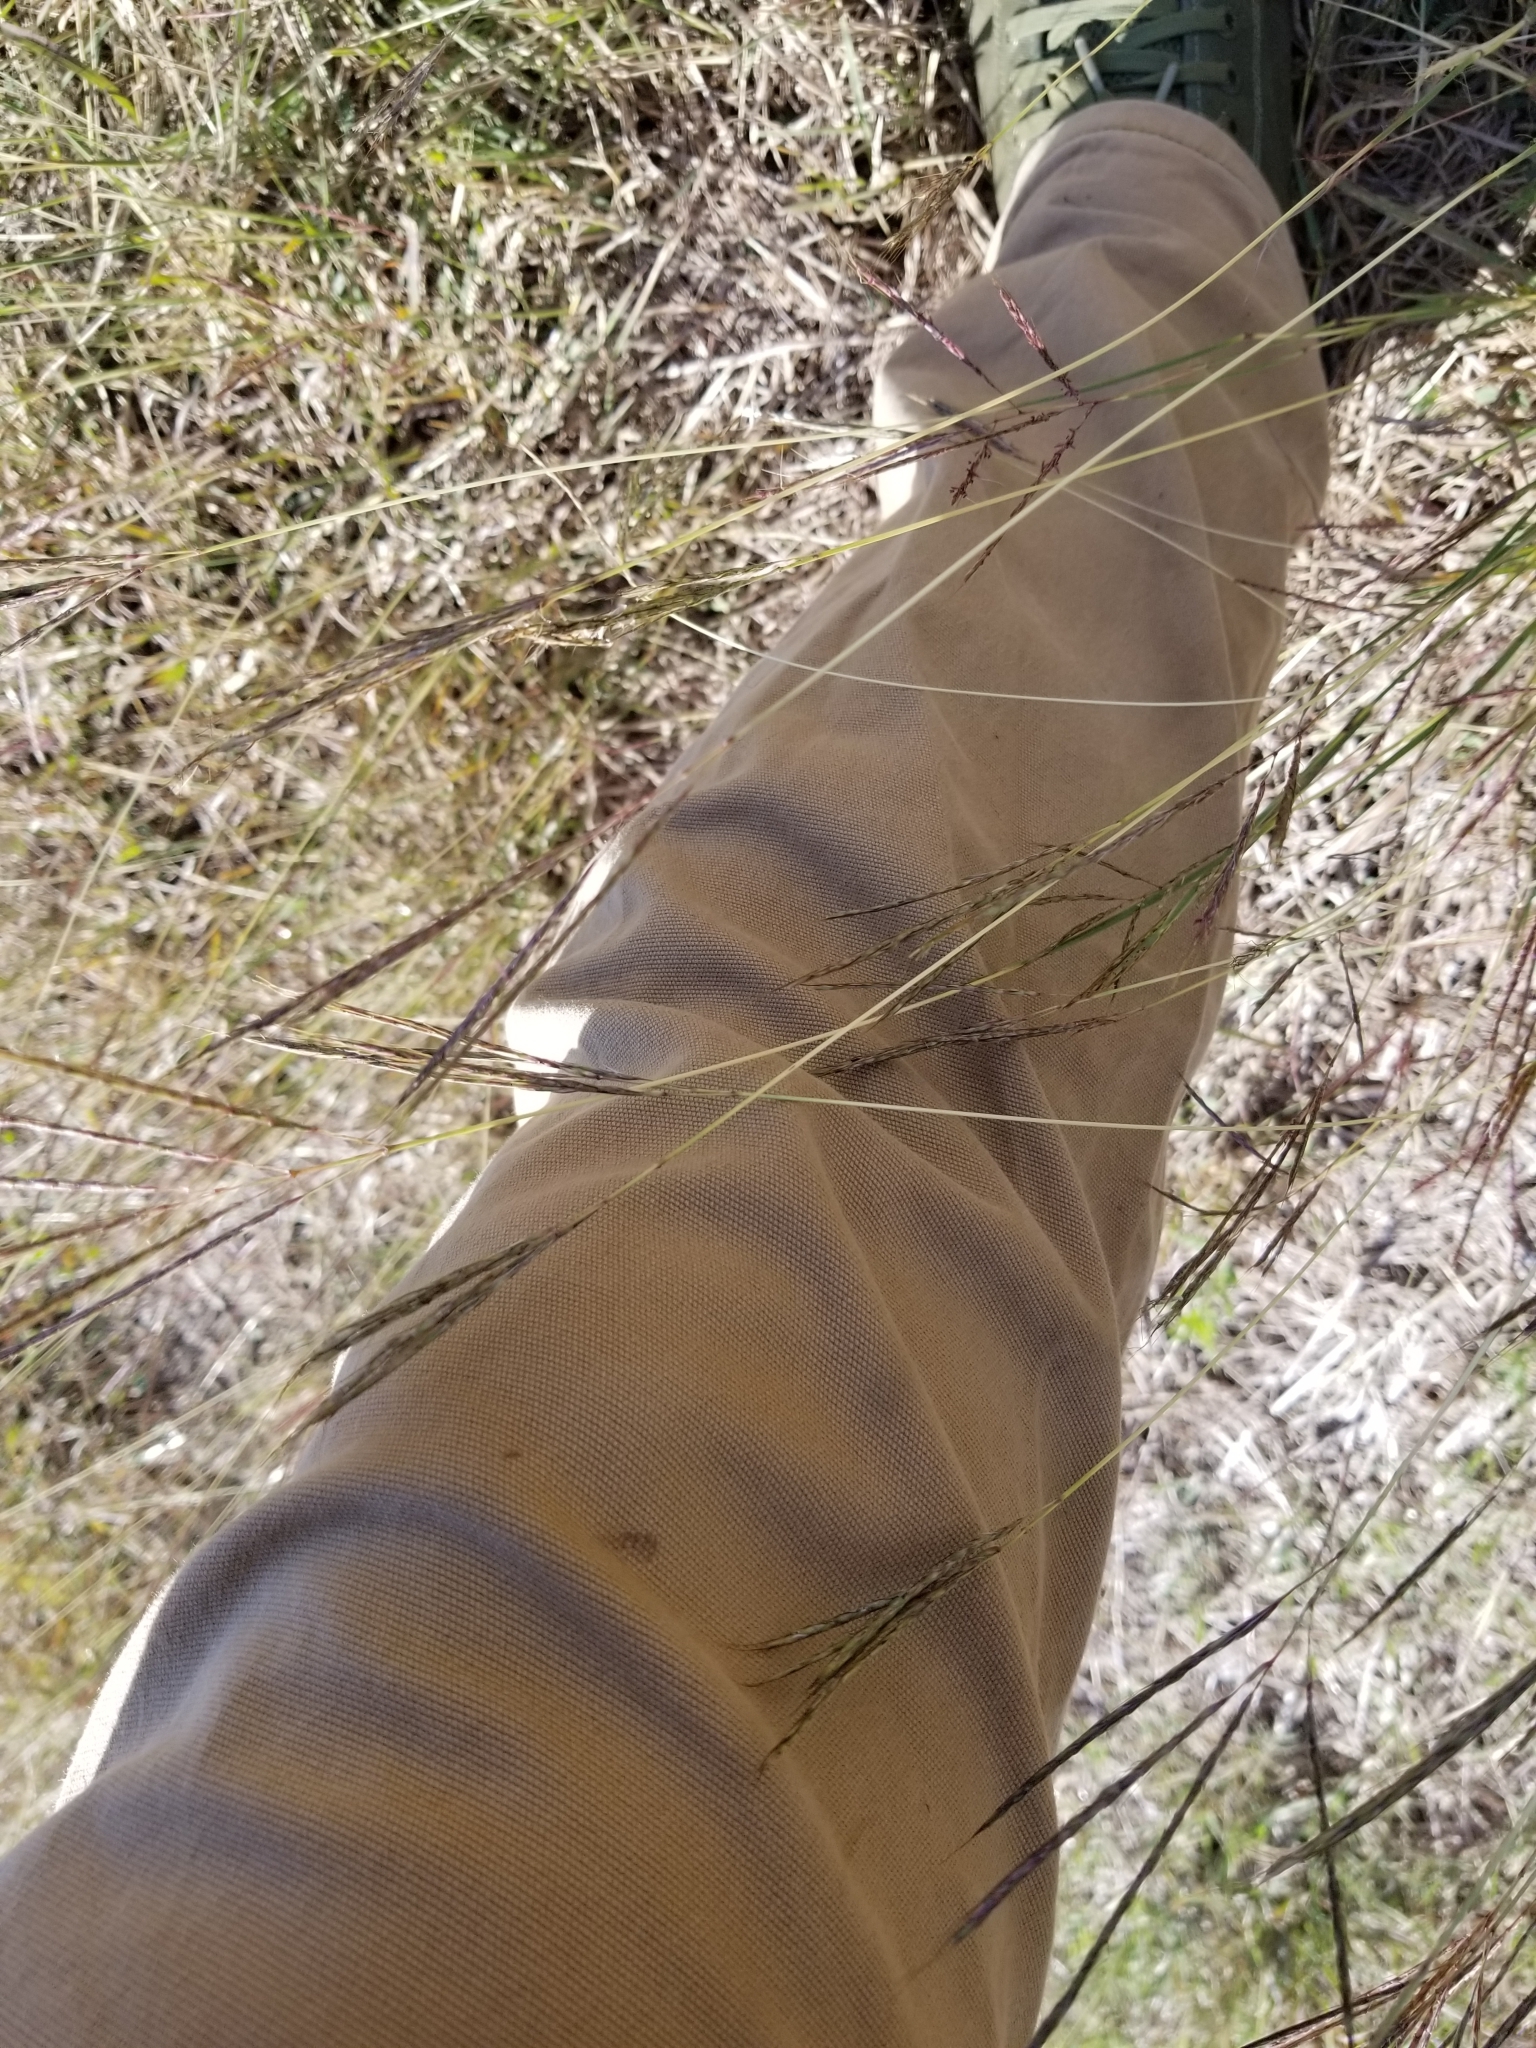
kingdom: Plantae
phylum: Tracheophyta
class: Liliopsida
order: Poales
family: Poaceae
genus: Bothriochloa
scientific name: Bothriochloa ischaemum
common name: Yellow bluestem
